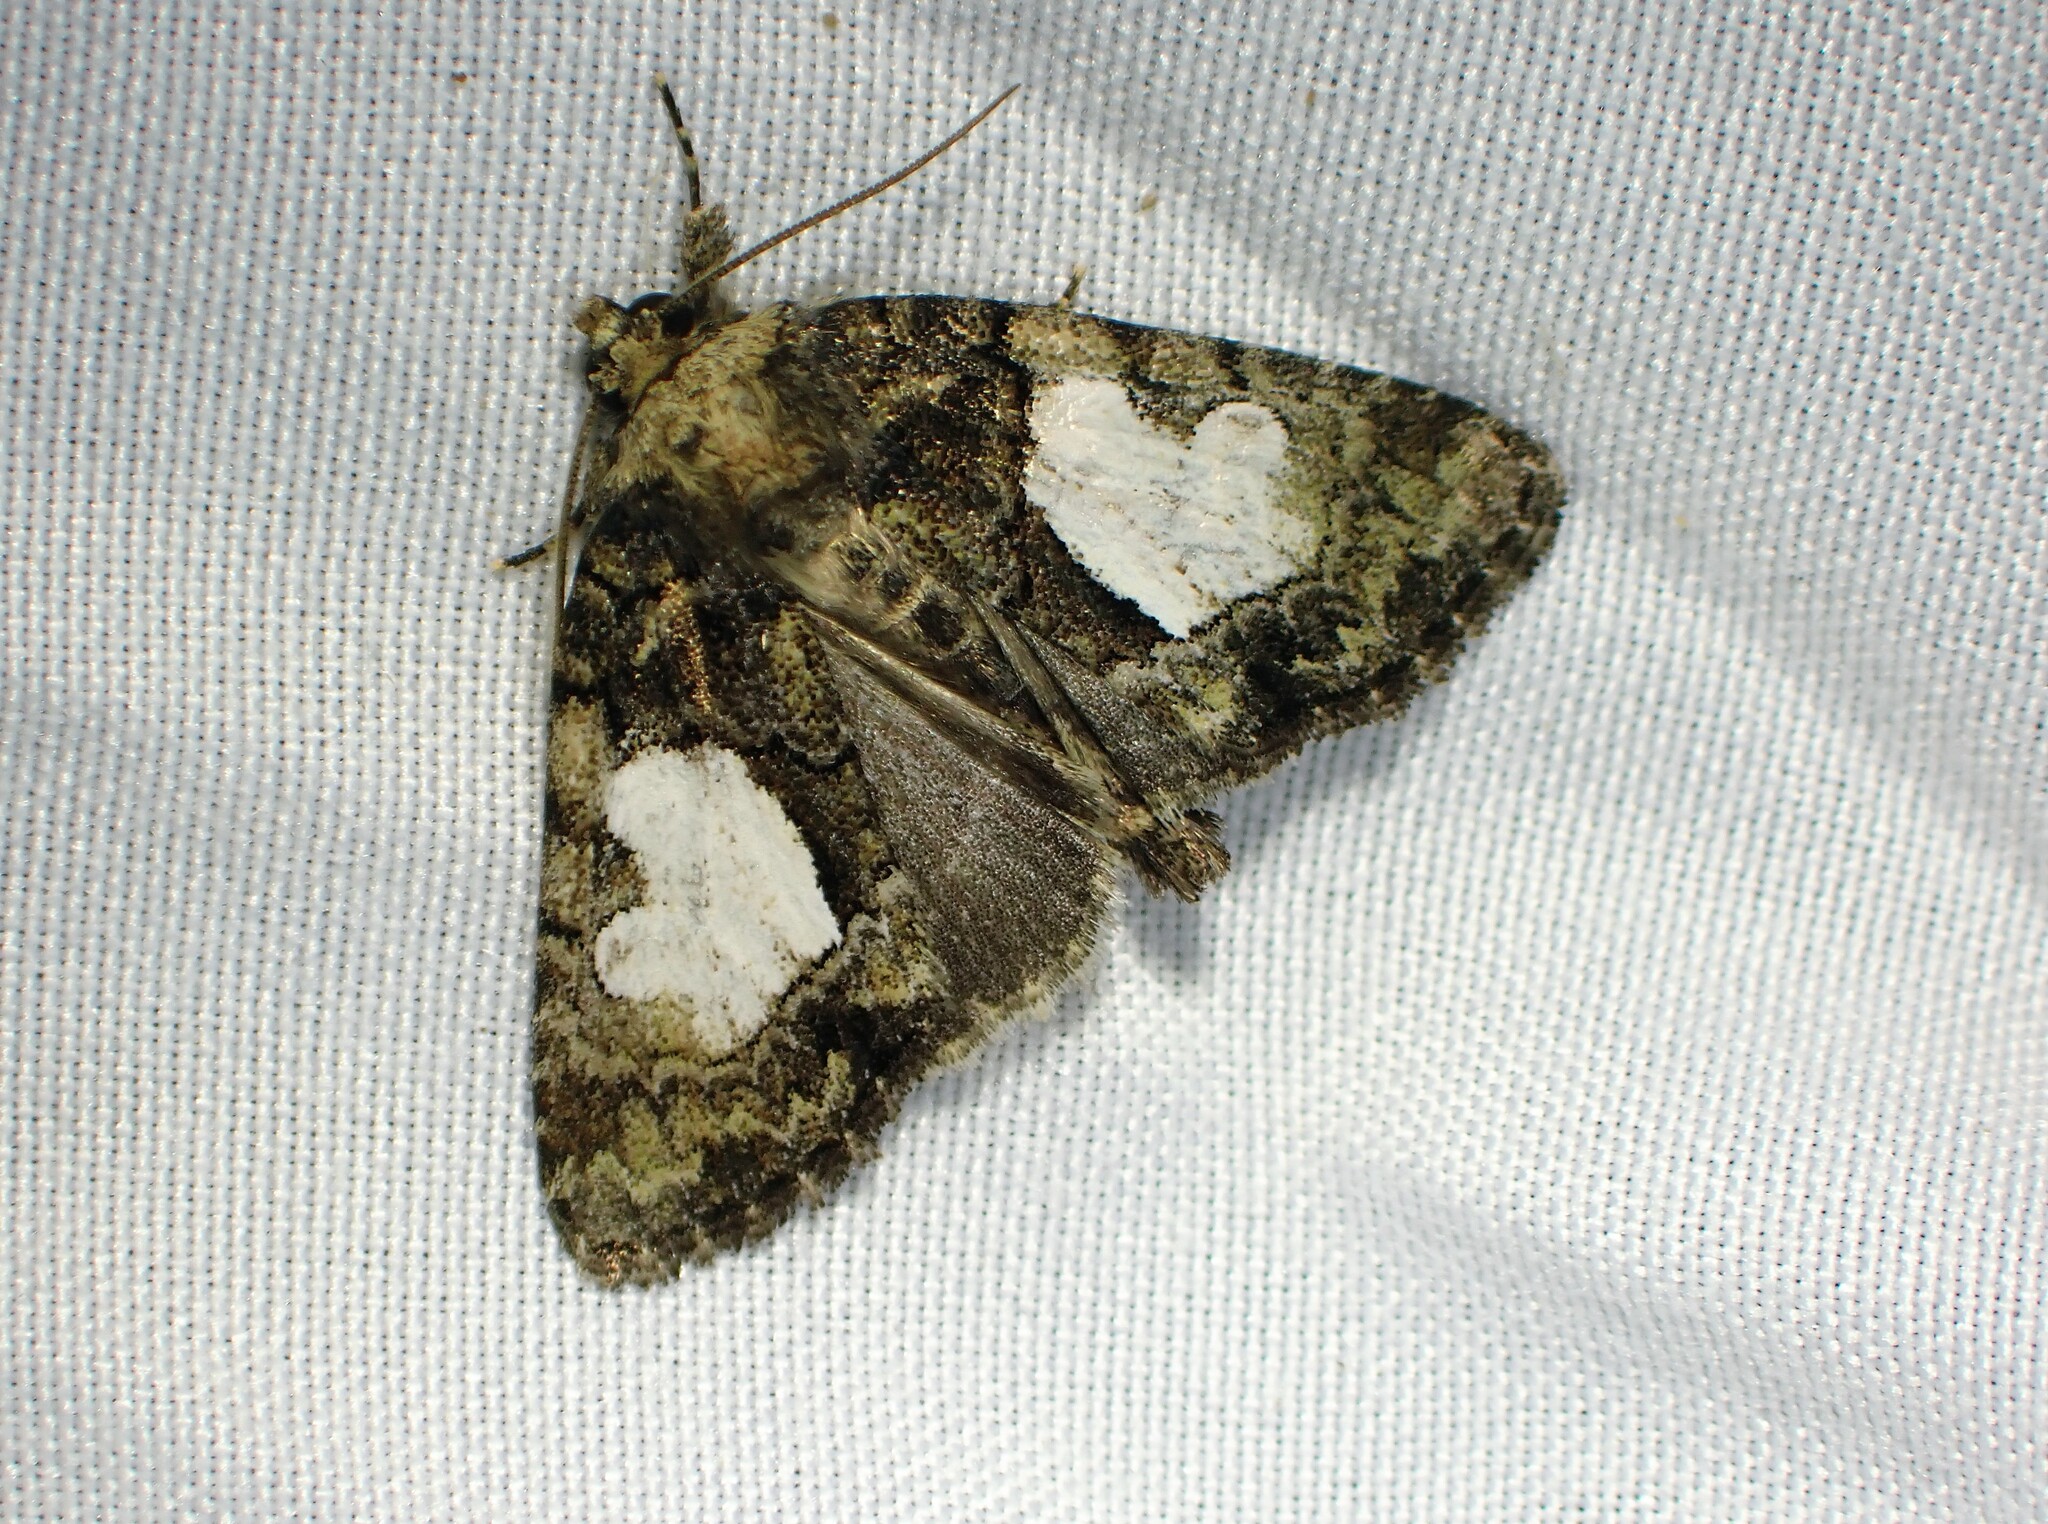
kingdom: Animalia
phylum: Arthropoda
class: Insecta
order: Lepidoptera
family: Noctuidae
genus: Chytonix
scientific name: Chytonix palliatricula
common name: Cloaked marvel
